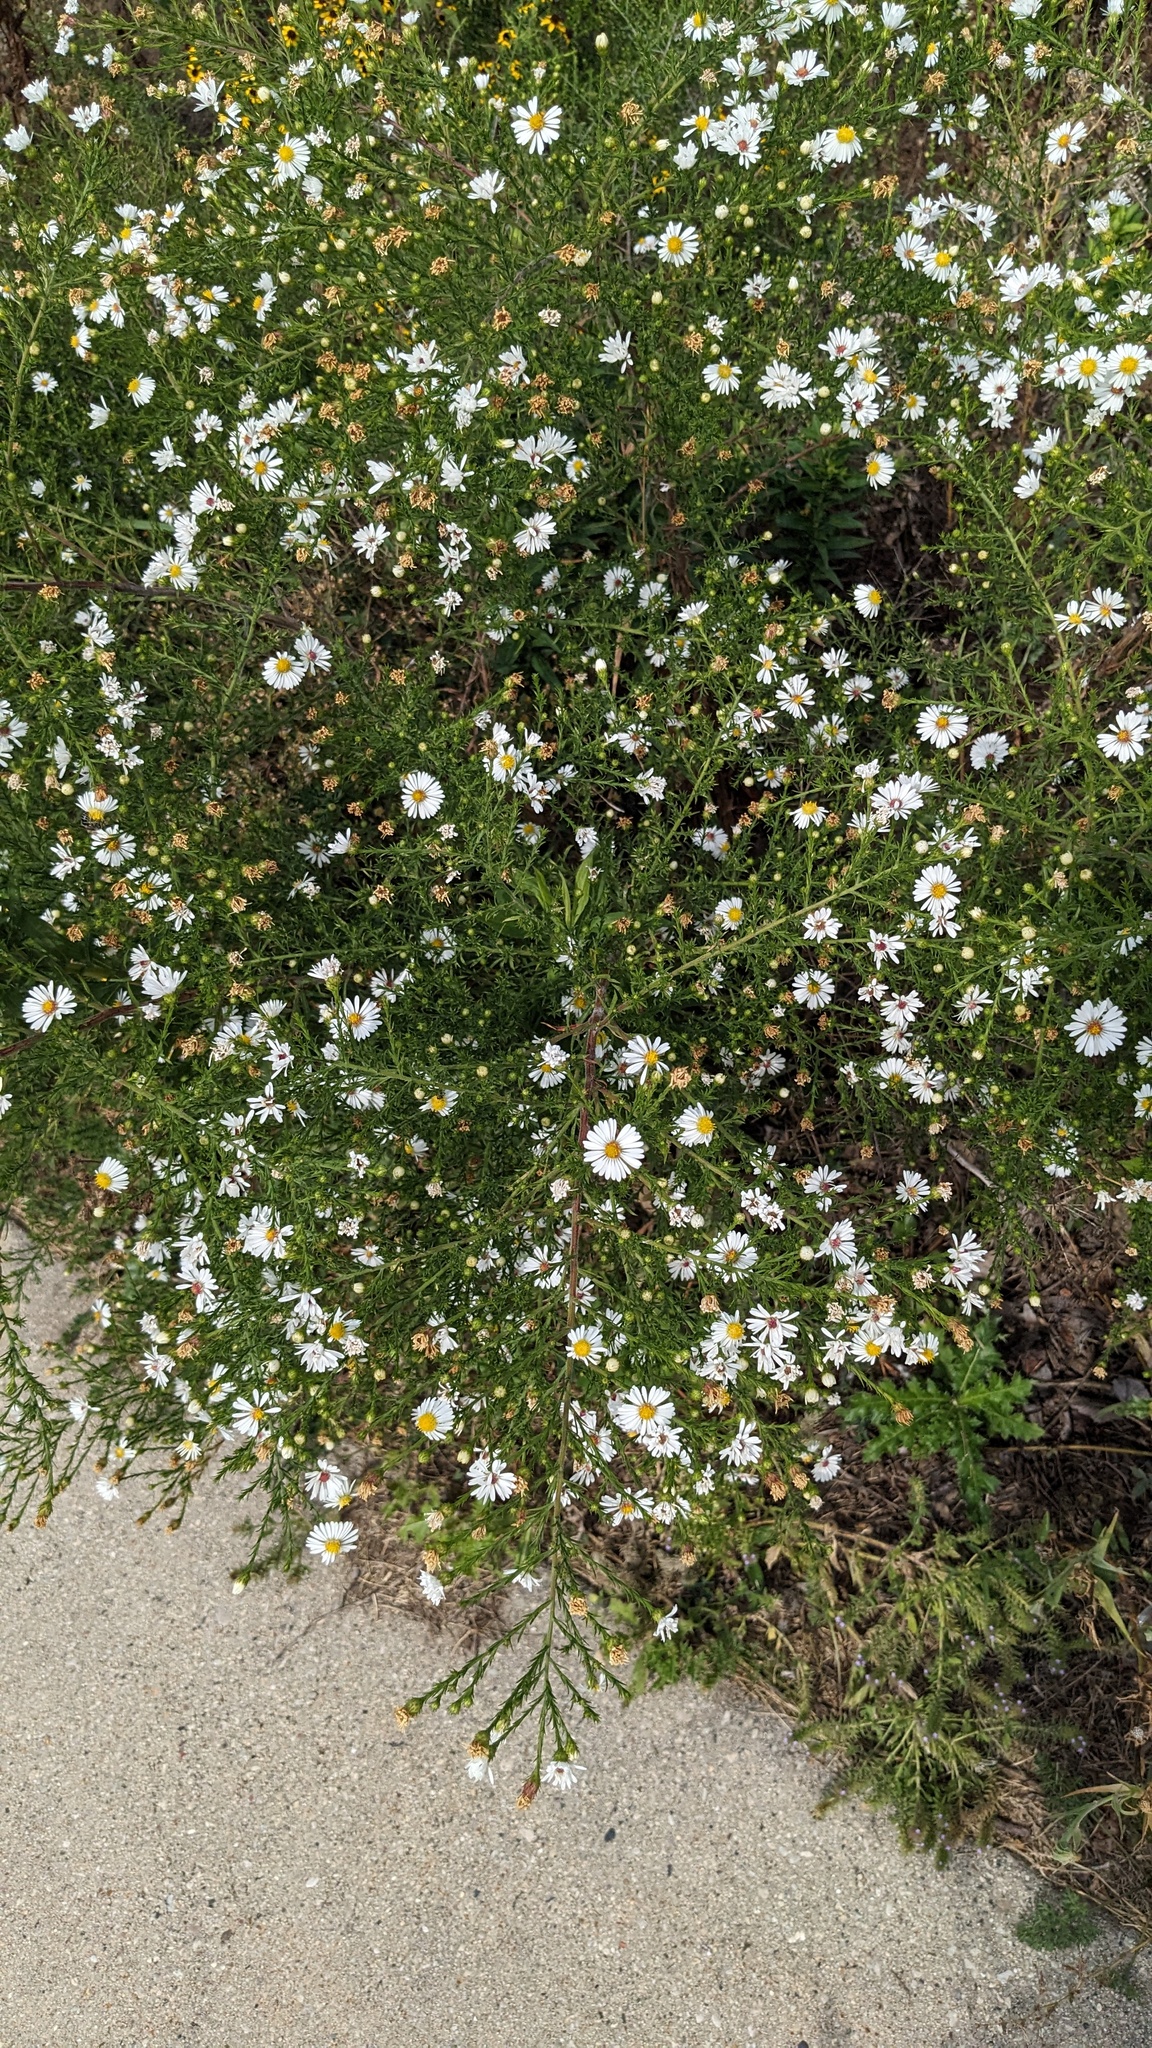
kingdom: Plantae
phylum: Tracheophyta
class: Magnoliopsida
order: Asterales
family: Asteraceae
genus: Symphyotrichum
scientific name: Symphyotrichum pilosum
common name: Awl aster
